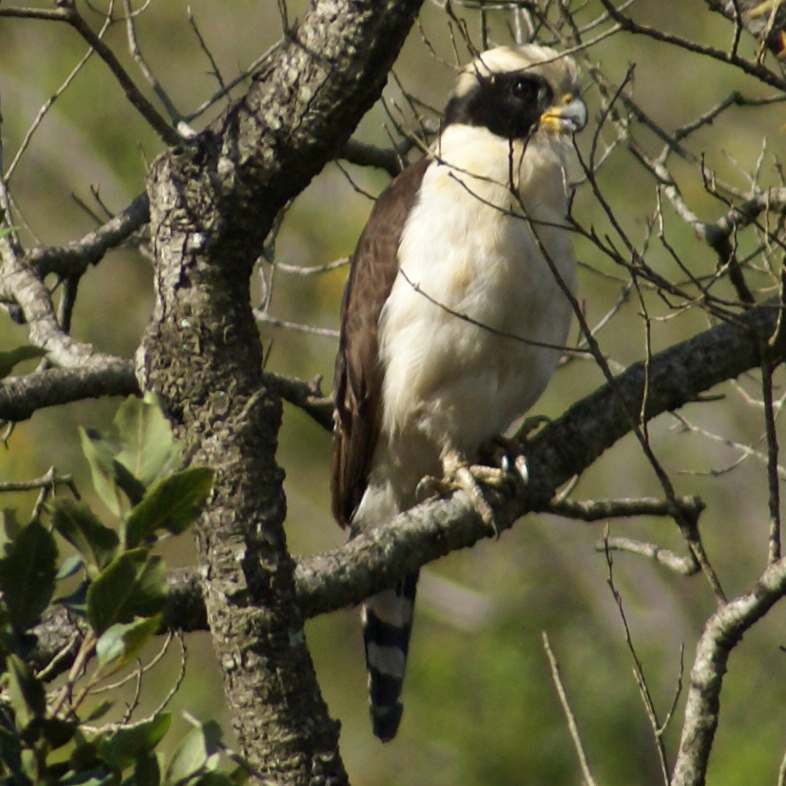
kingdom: Animalia
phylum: Chordata
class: Aves
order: Falconiformes
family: Falconidae
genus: Herpetotheres
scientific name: Herpetotheres cachinnans
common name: Laughing falcon
